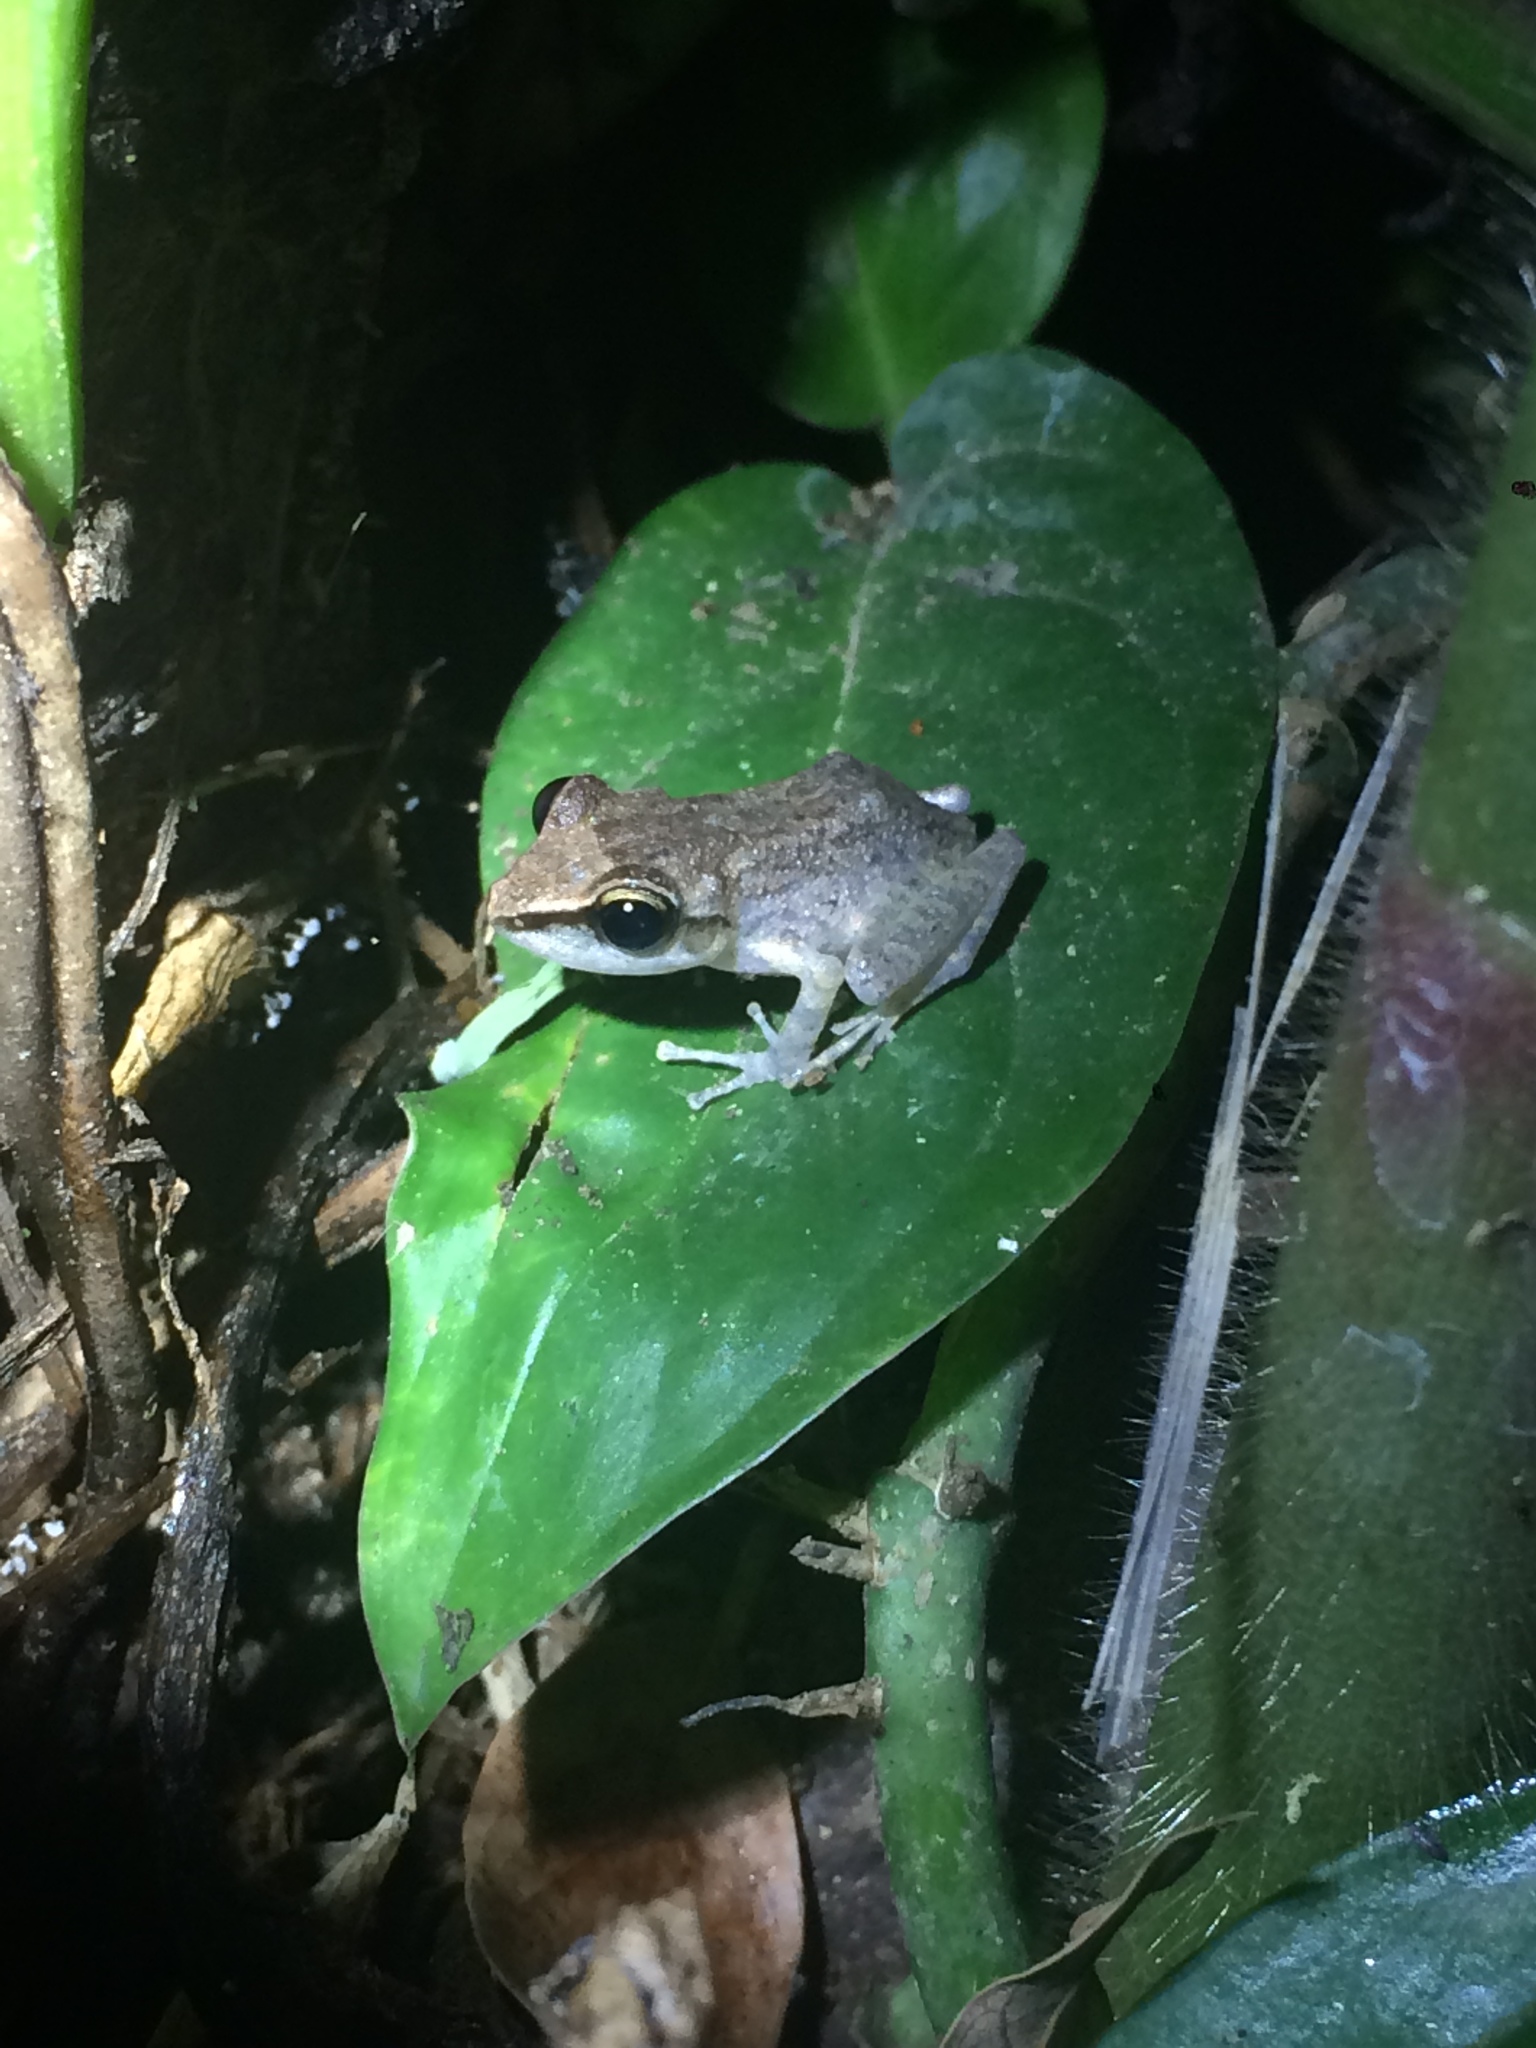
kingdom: Animalia
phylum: Chordata
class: Amphibia
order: Anura
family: Craugastoridae
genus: Pristimantis
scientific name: Pristimantis paulodutrai
